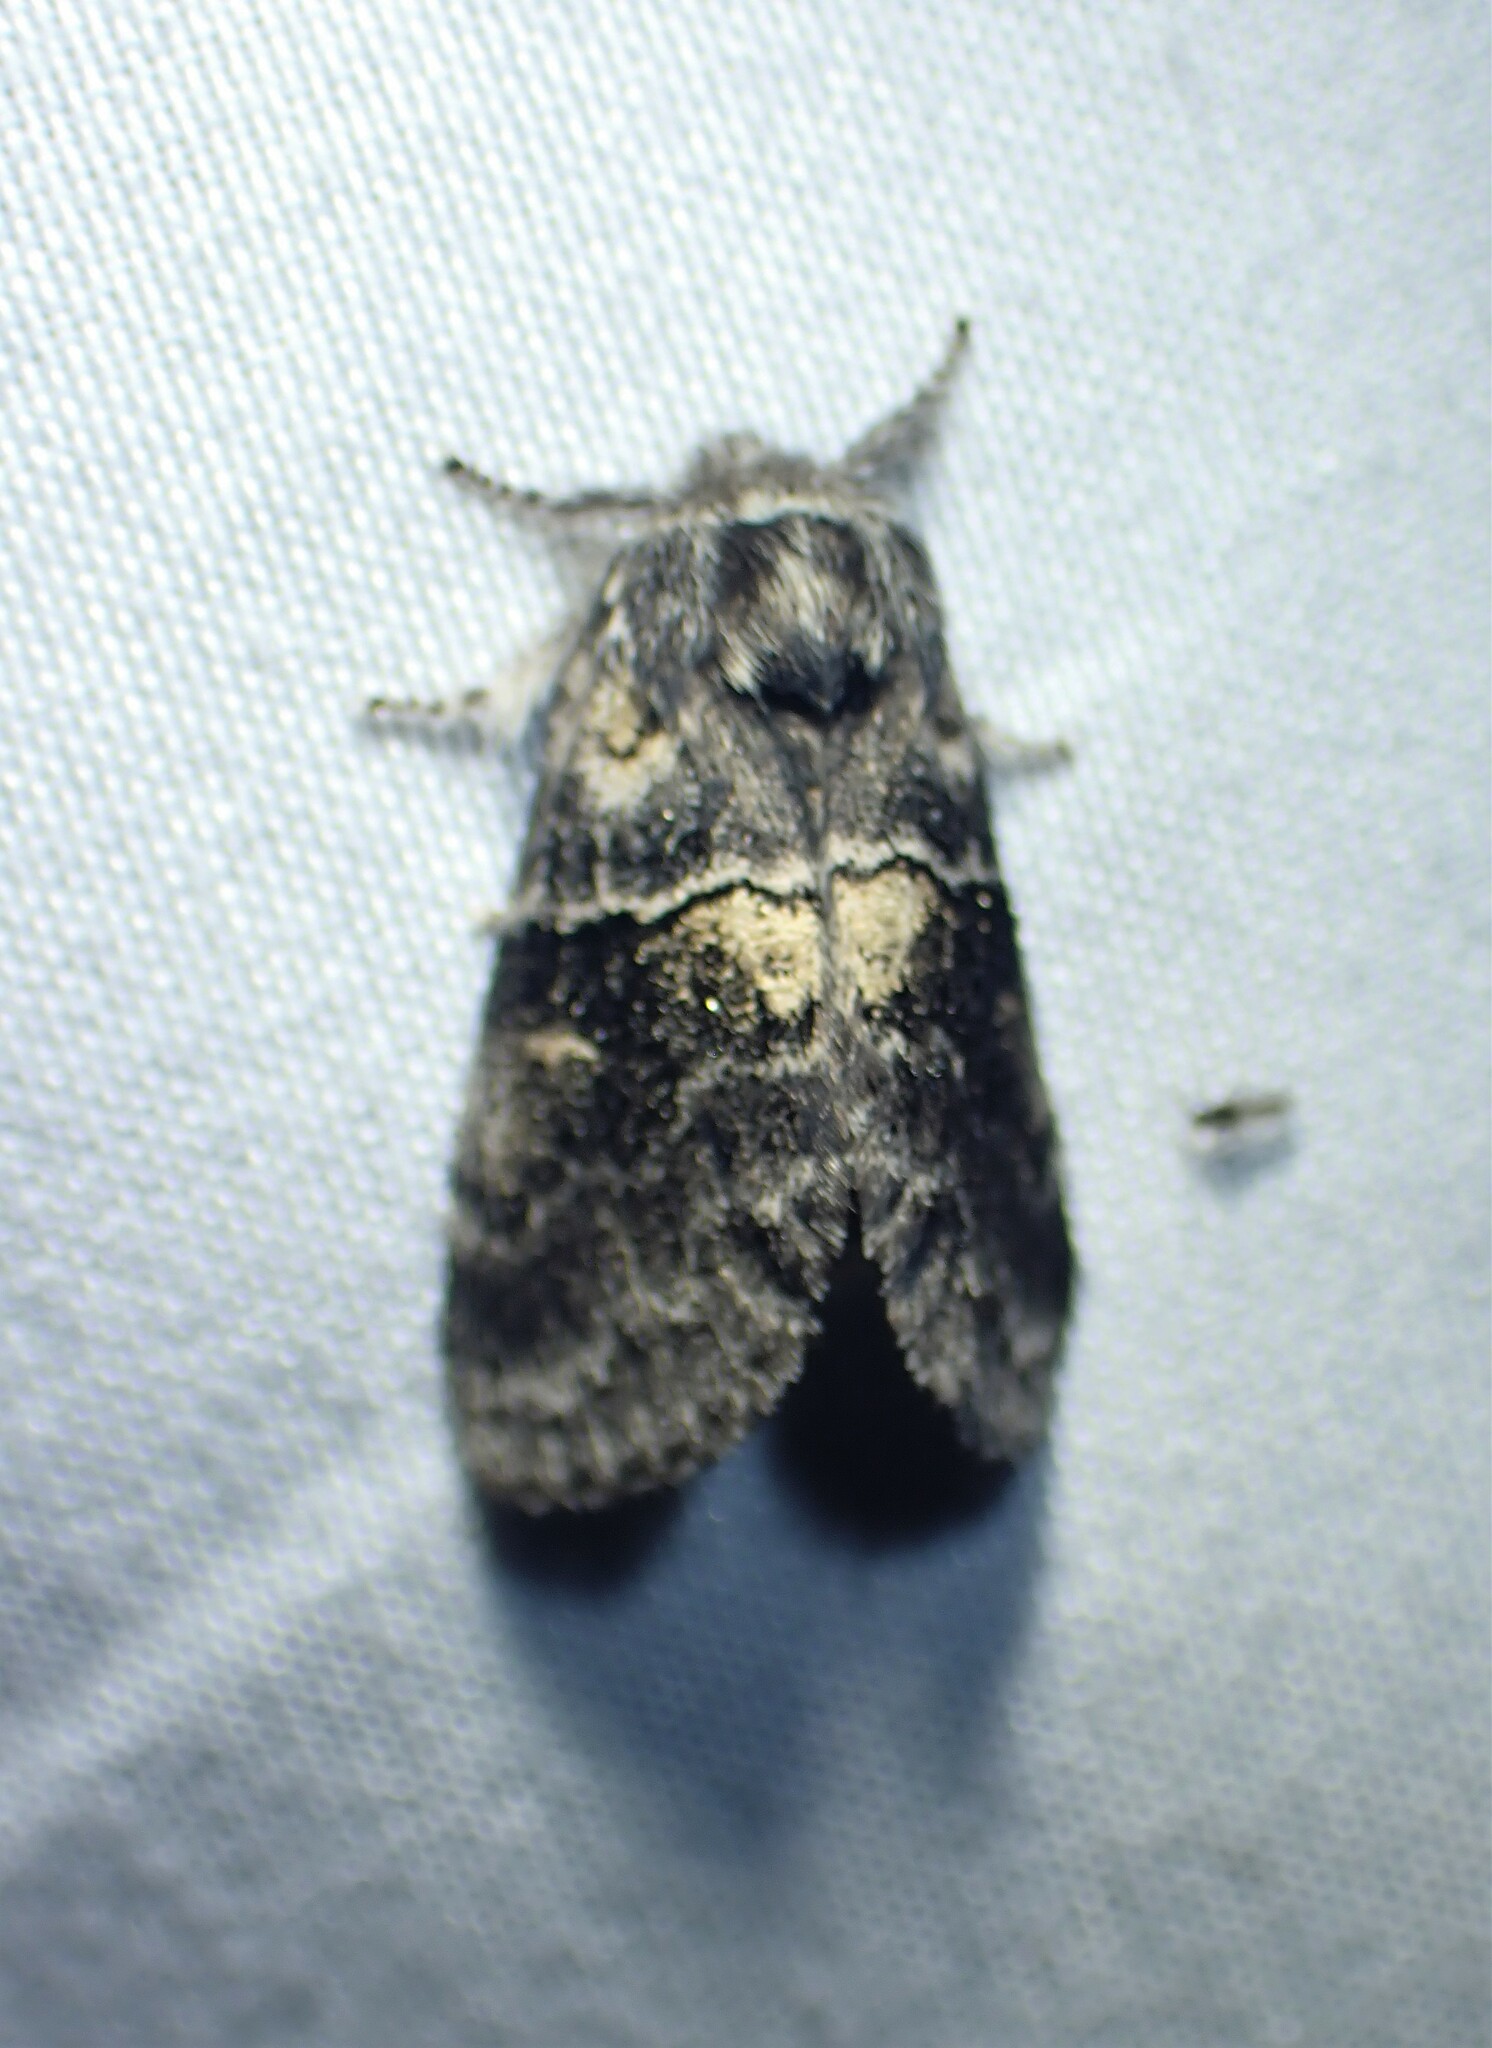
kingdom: Animalia
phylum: Arthropoda
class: Insecta
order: Lepidoptera
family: Notodontidae
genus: Gluphisia
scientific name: Gluphisia septentrionis
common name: Common gluphisia
